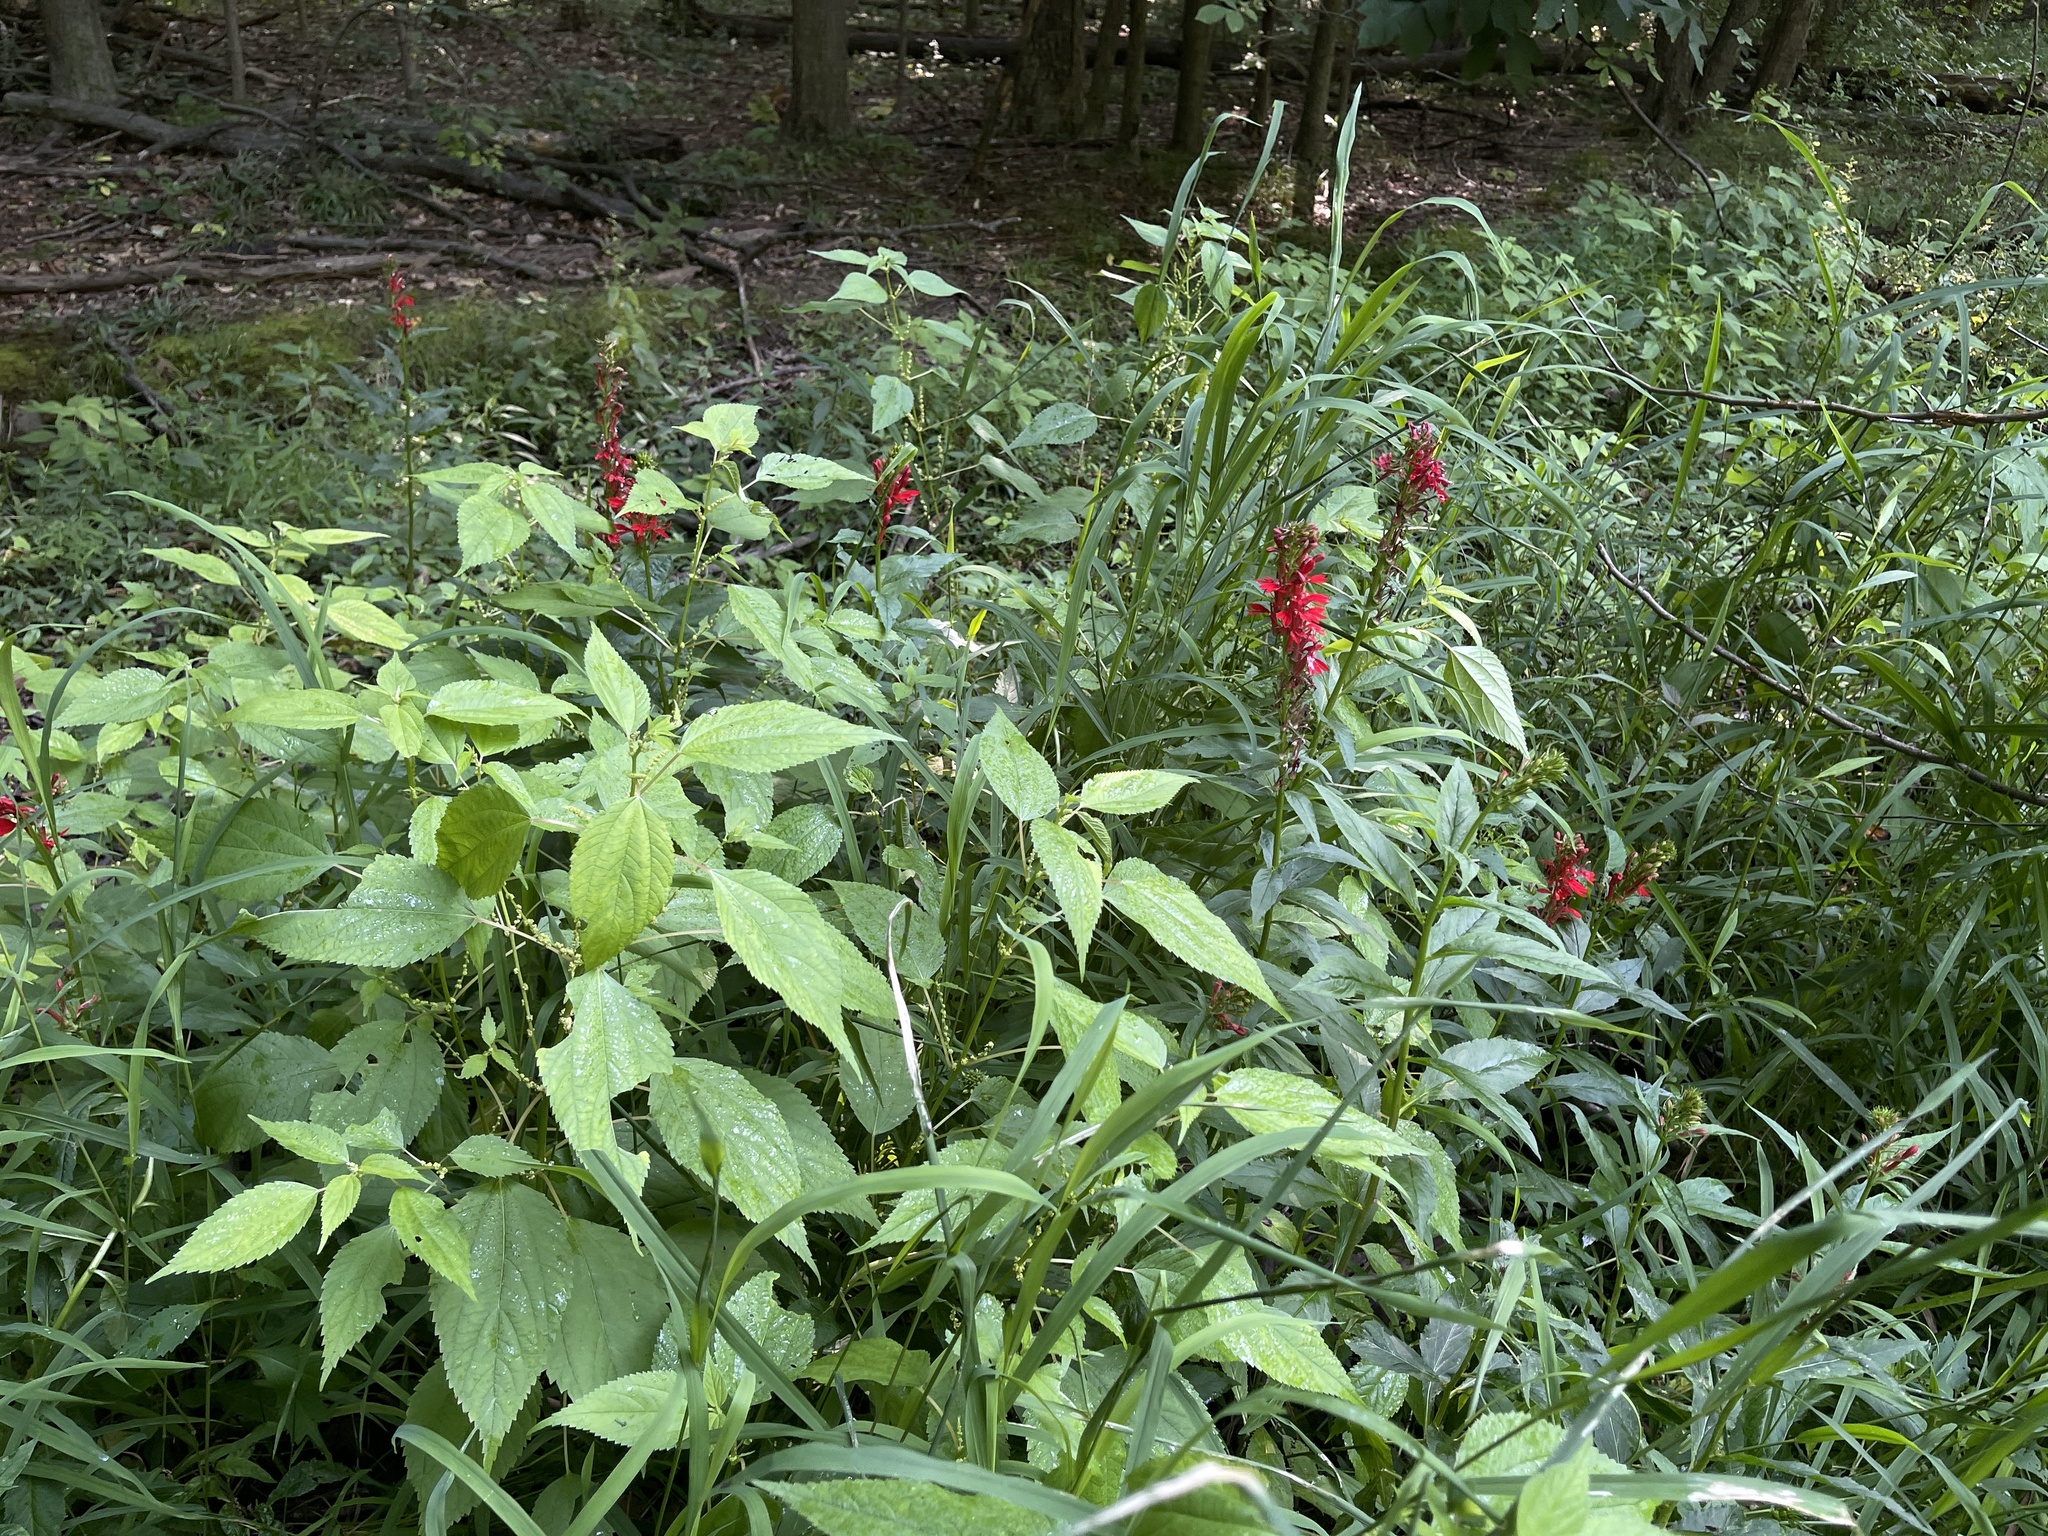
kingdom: Plantae
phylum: Tracheophyta
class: Magnoliopsida
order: Asterales
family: Campanulaceae
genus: Lobelia
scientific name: Lobelia cardinalis
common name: Cardinal flower
